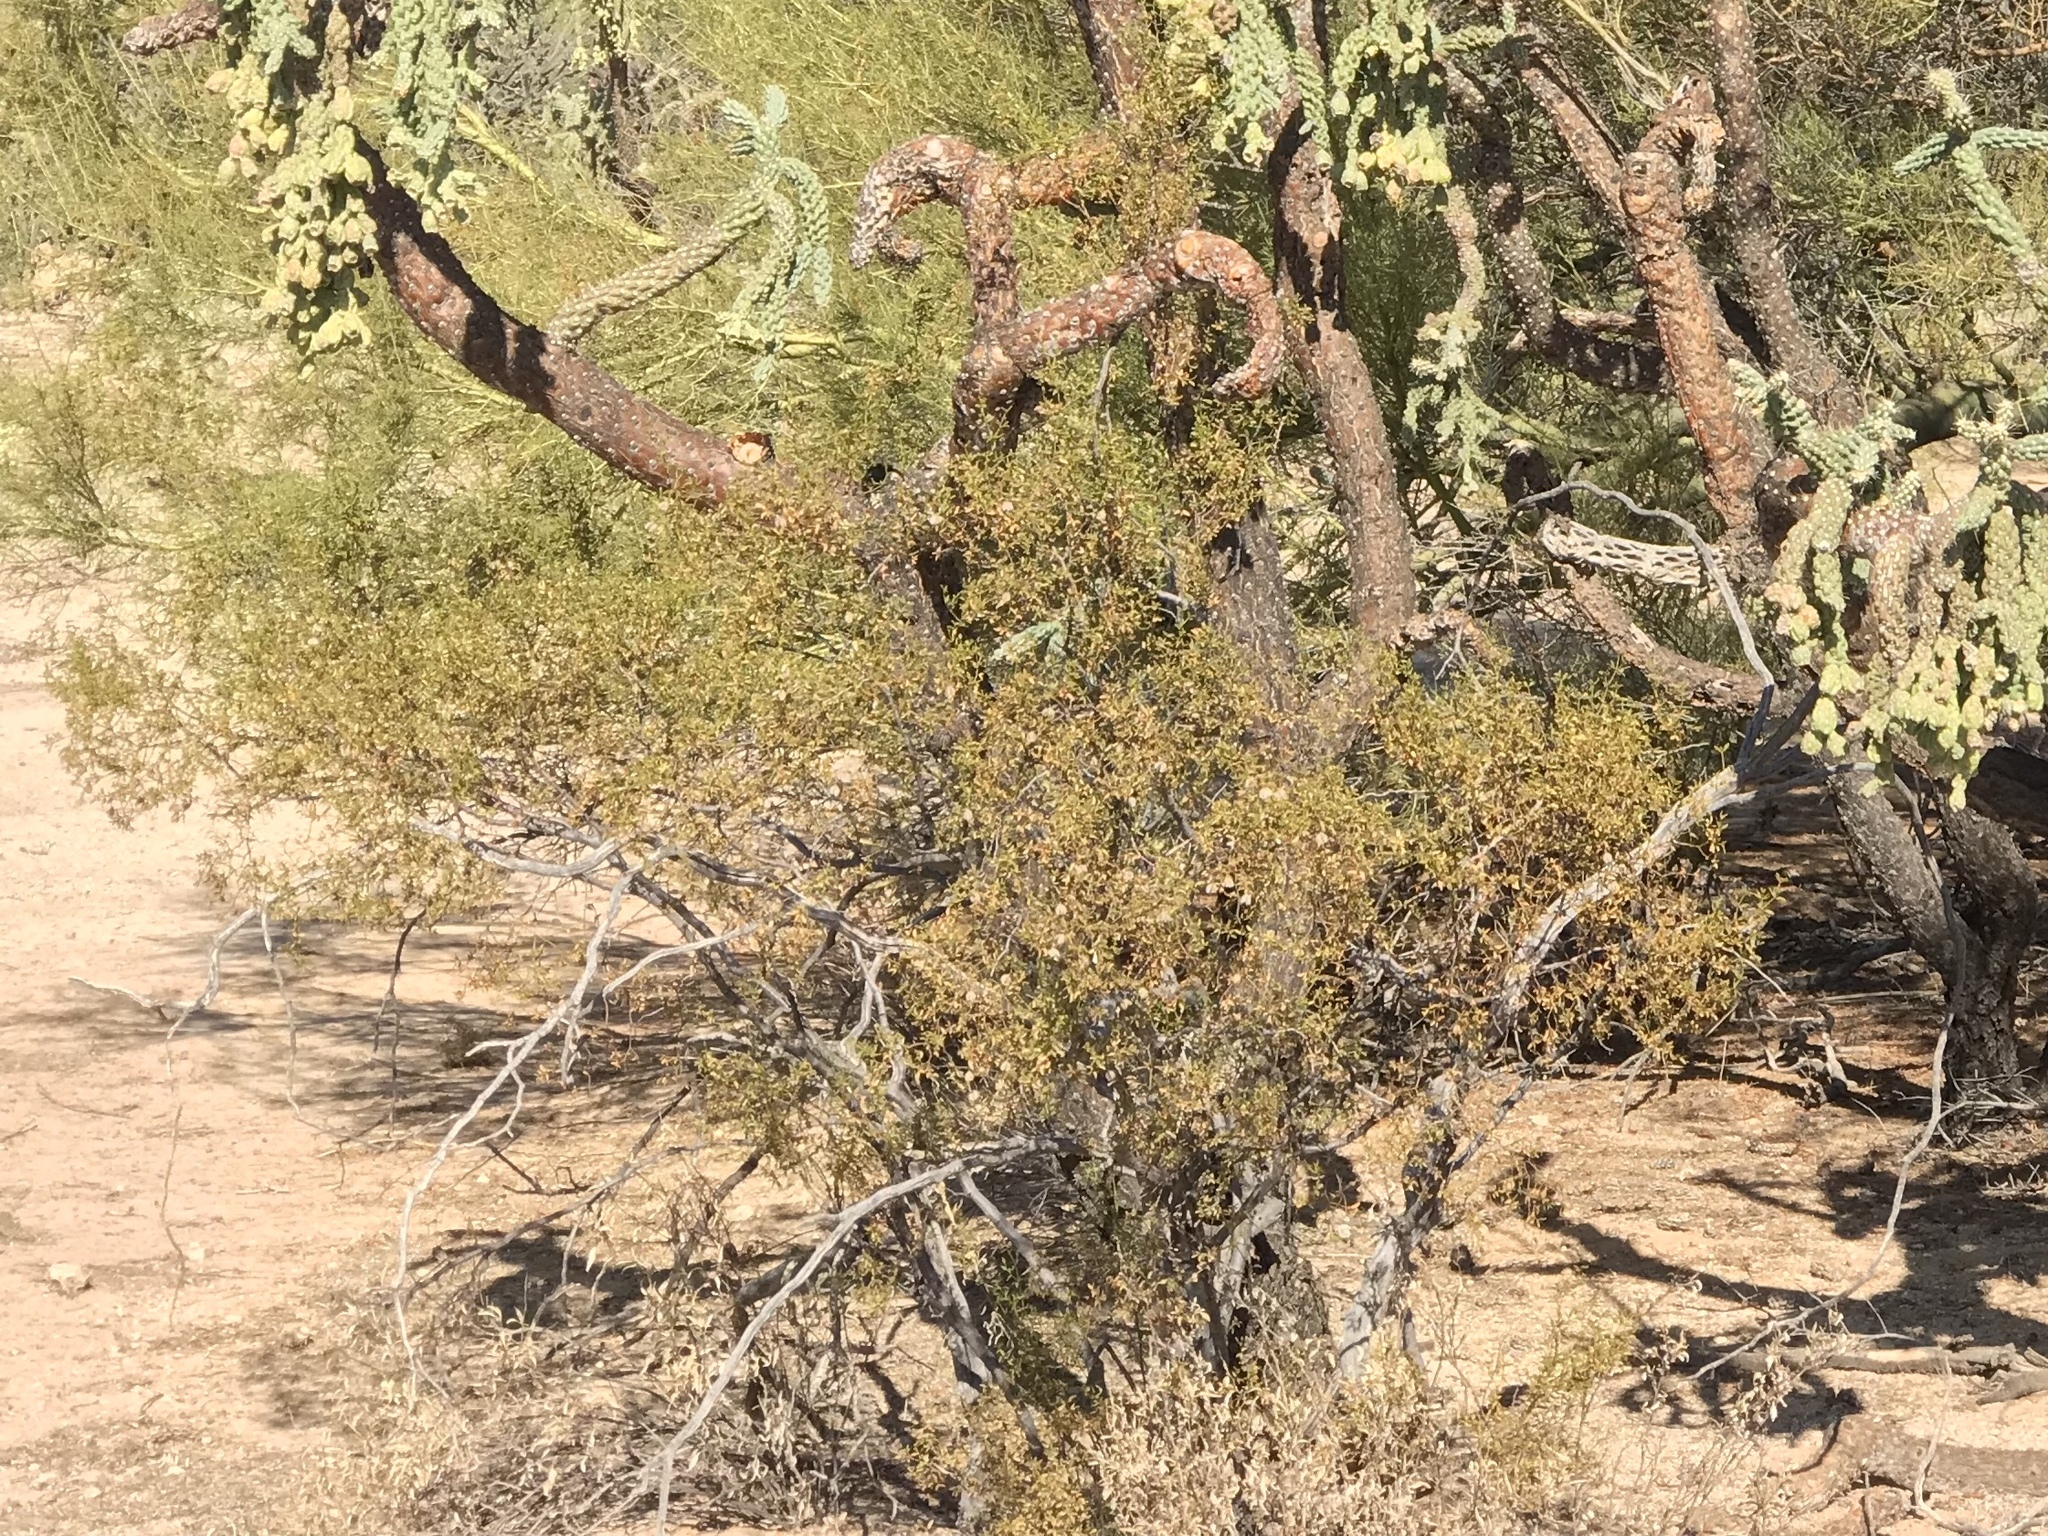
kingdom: Plantae
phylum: Tracheophyta
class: Magnoliopsida
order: Zygophyllales
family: Zygophyllaceae
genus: Larrea
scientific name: Larrea tridentata
